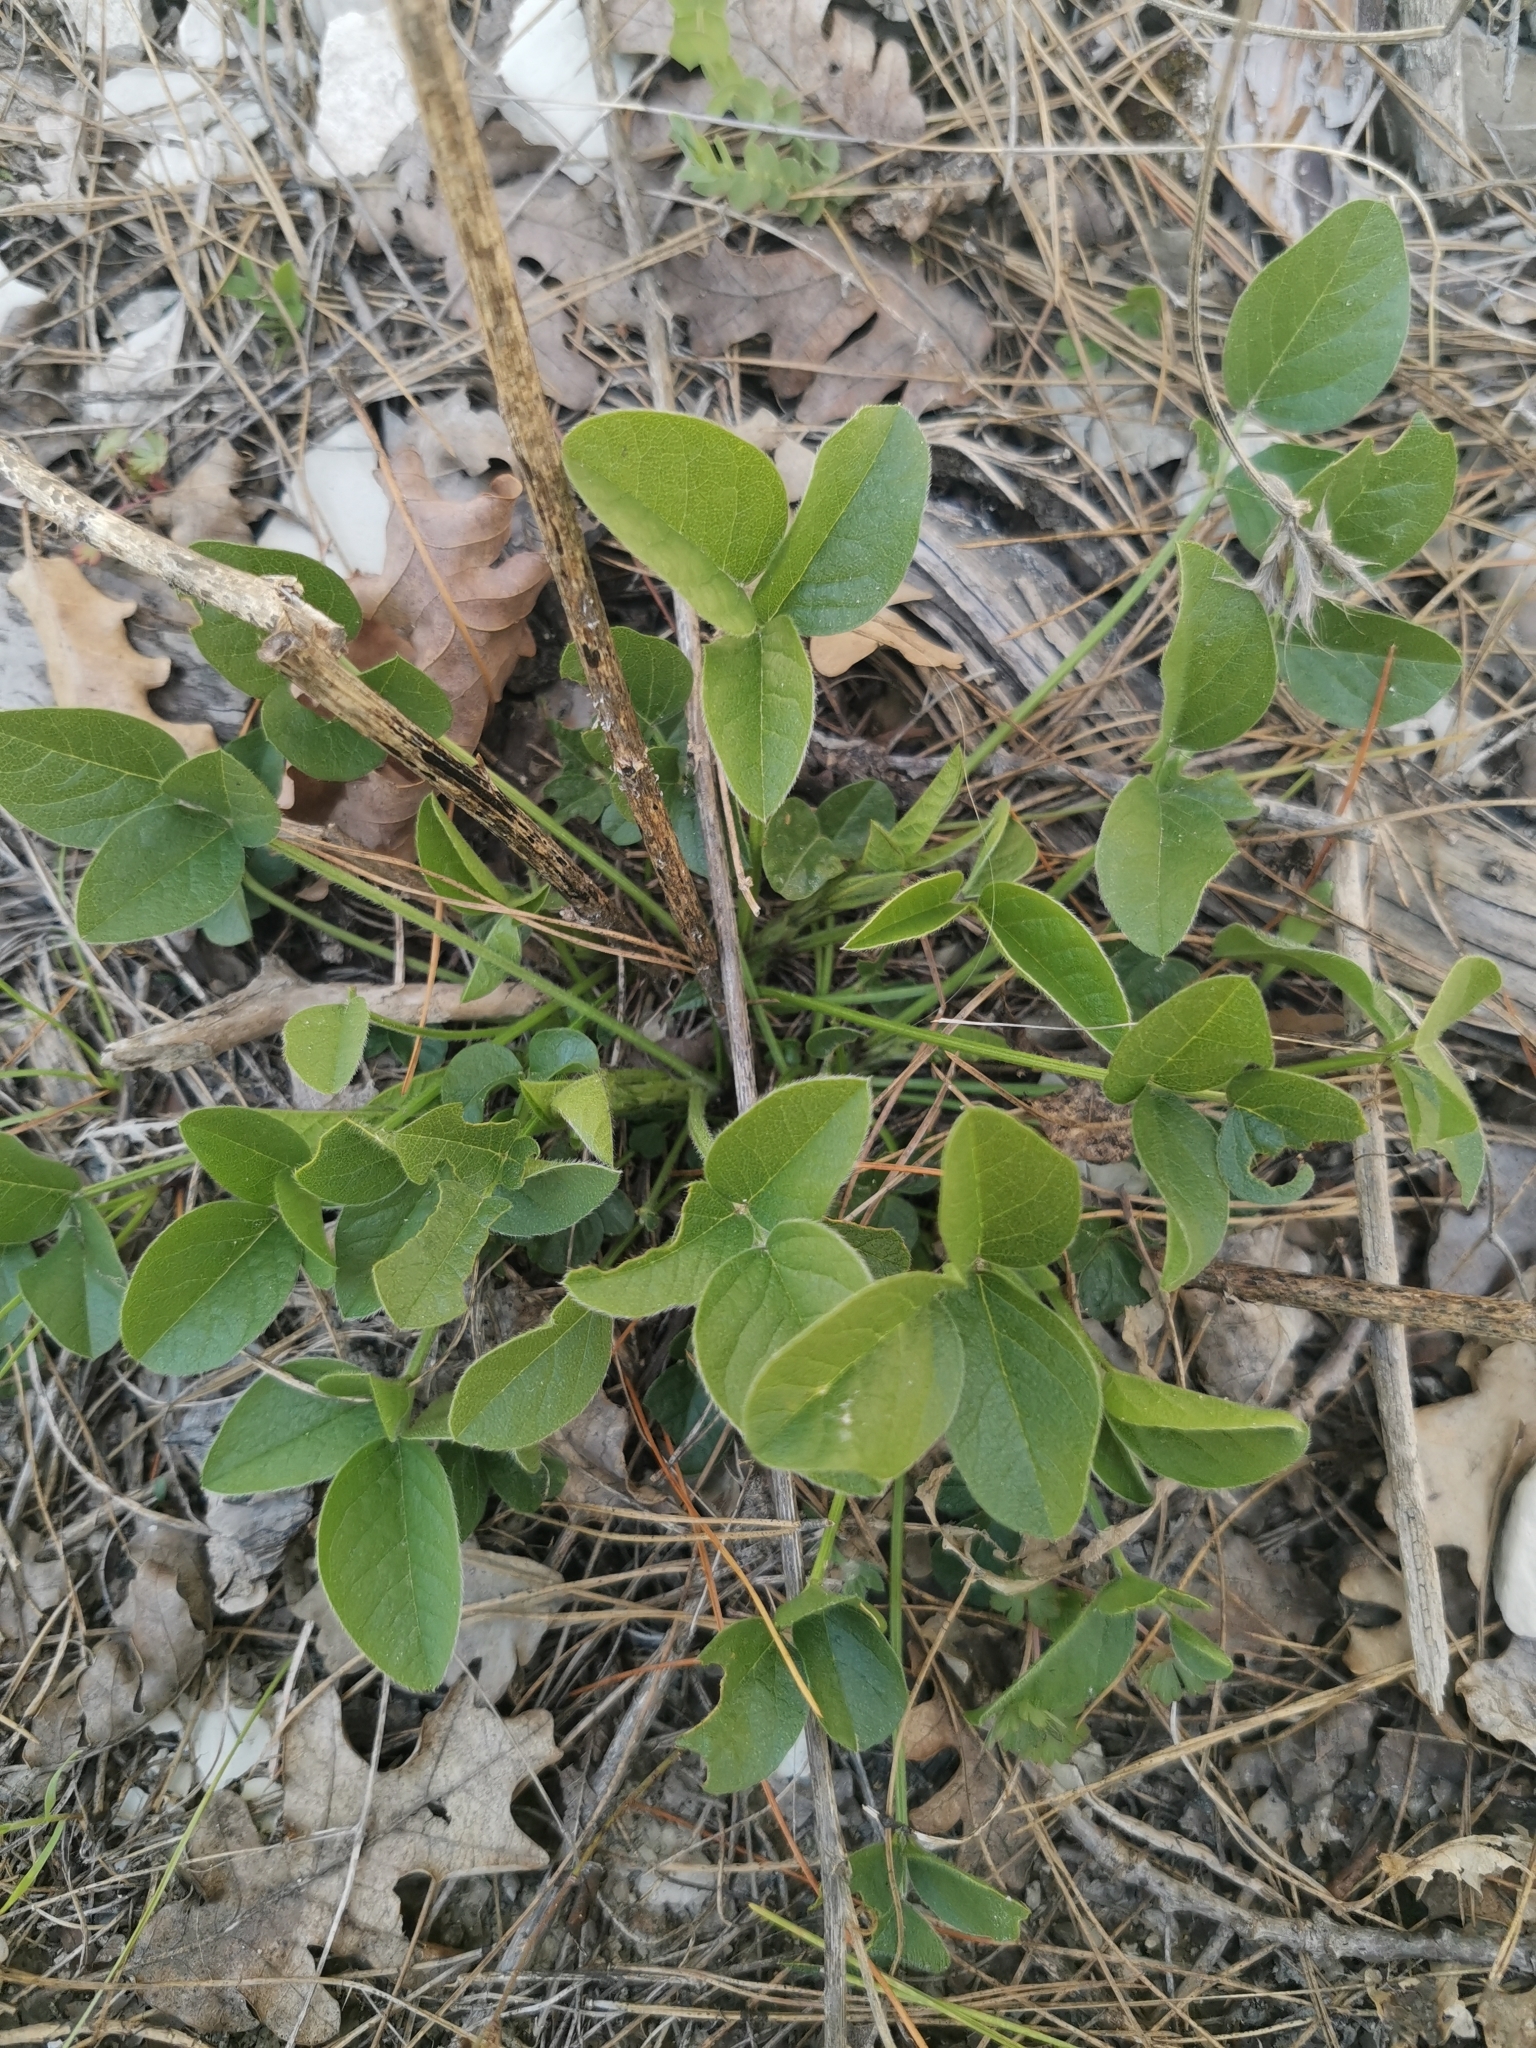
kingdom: Plantae
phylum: Tracheophyta
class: Magnoliopsida
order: Fabales
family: Fabaceae
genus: Bituminaria
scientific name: Bituminaria bituminosa
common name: Arabian pea
